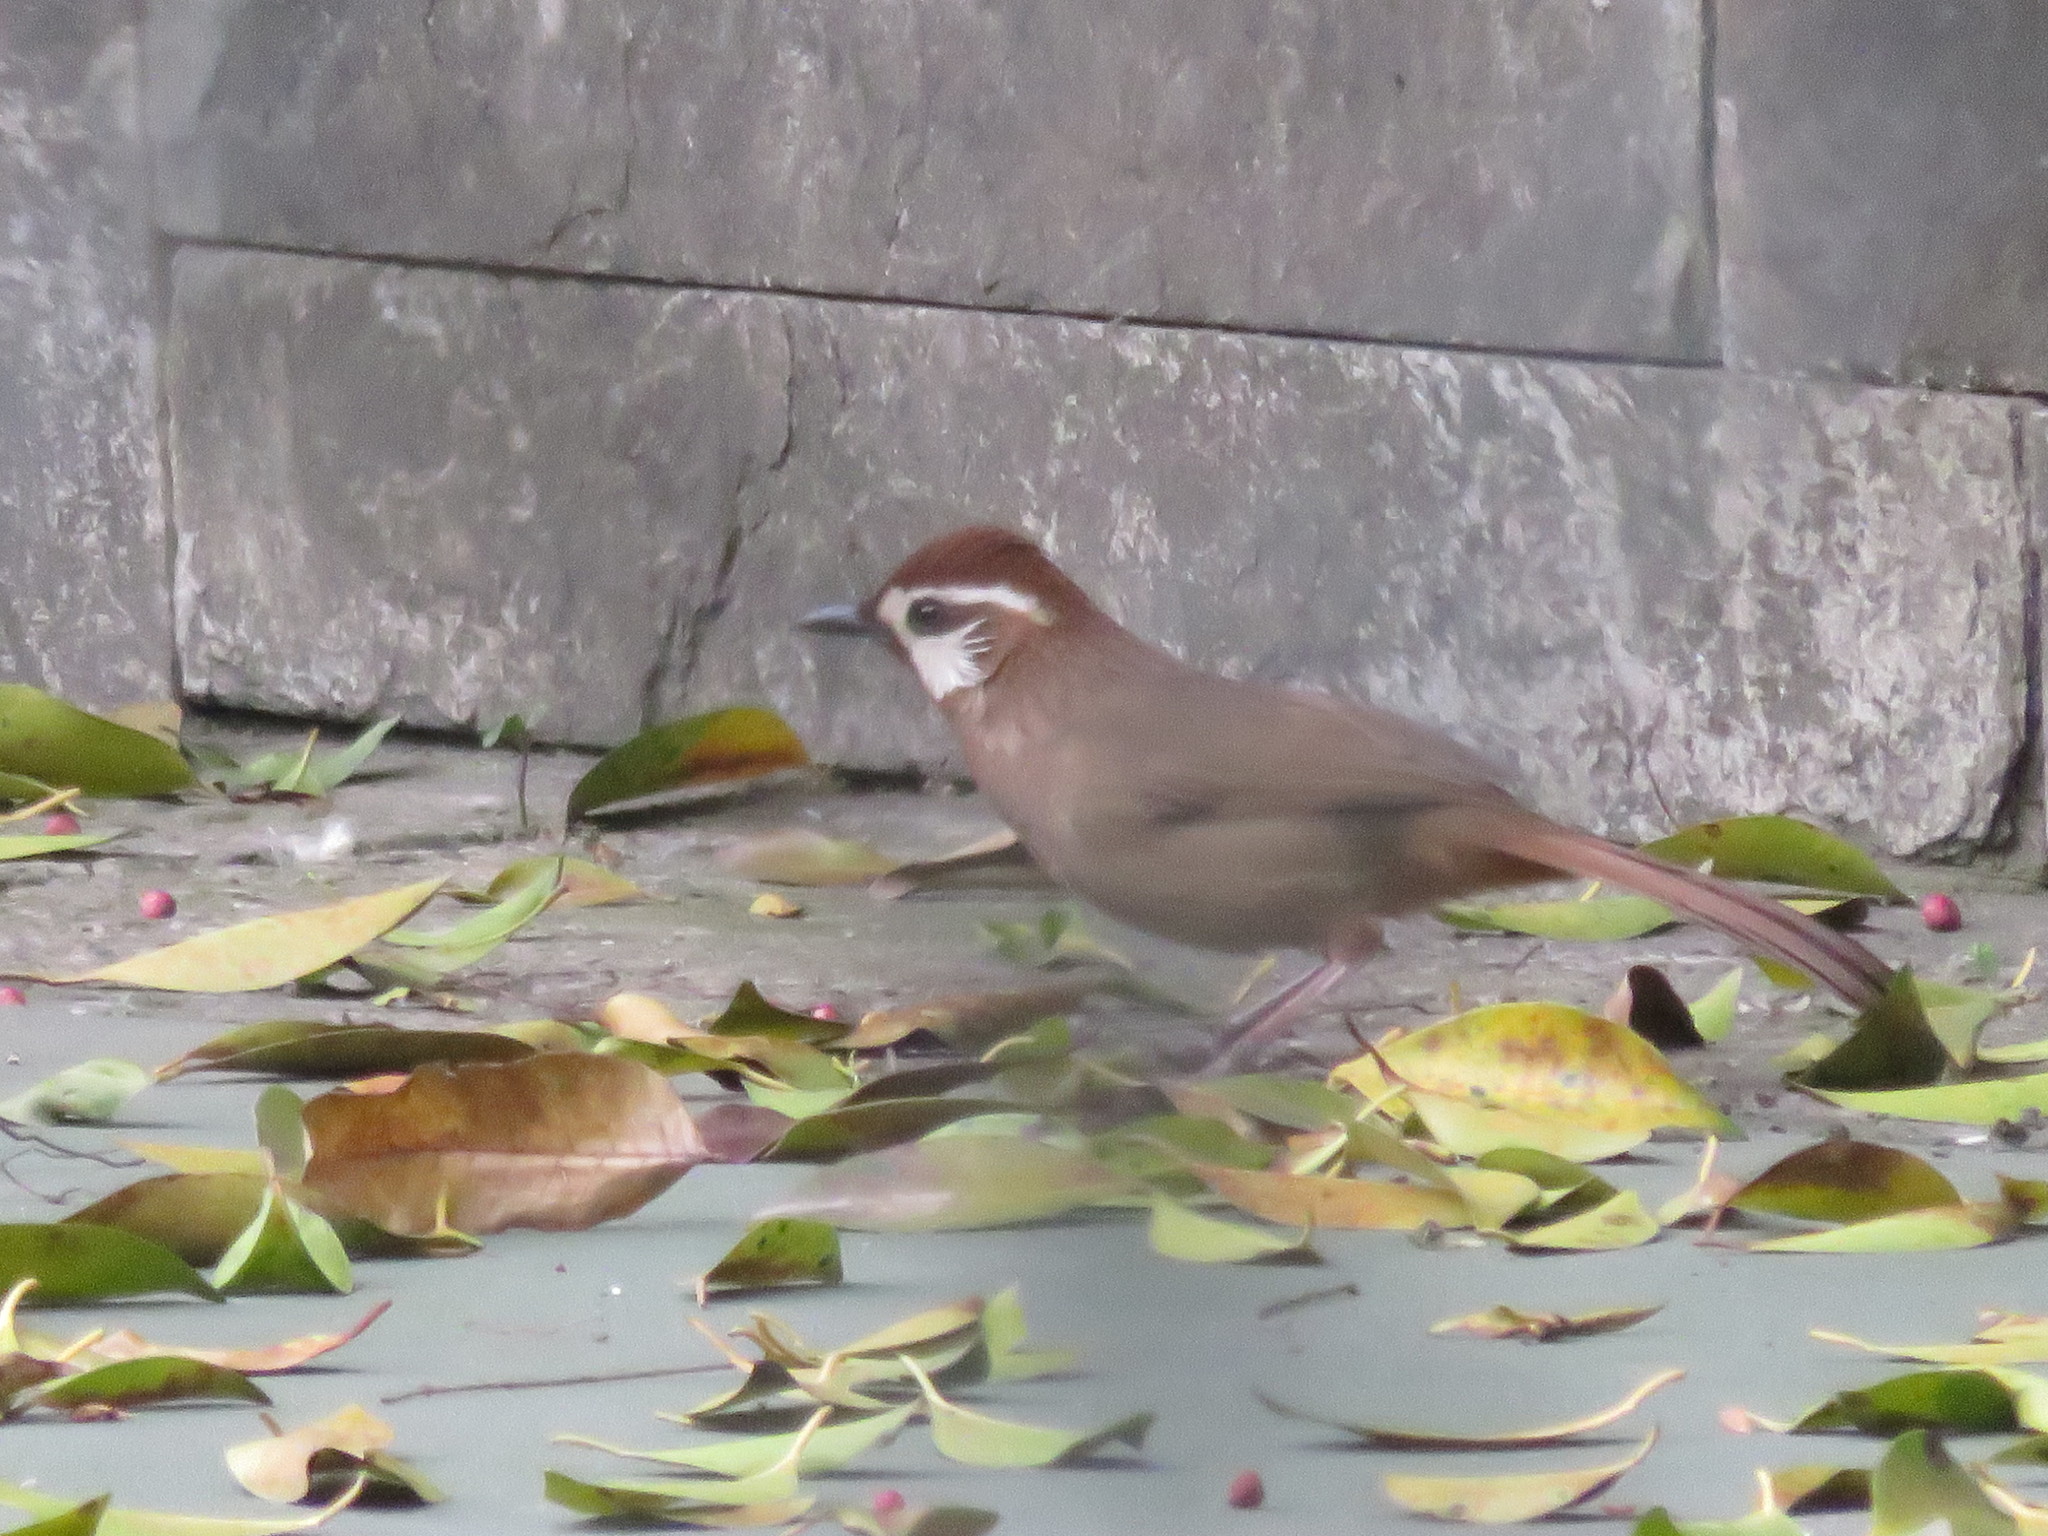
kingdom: Animalia
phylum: Chordata
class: Aves
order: Passeriformes
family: Leiothrichidae
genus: Pterorhinus
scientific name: Pterorhinus sannio
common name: White-browed laughingthrush
